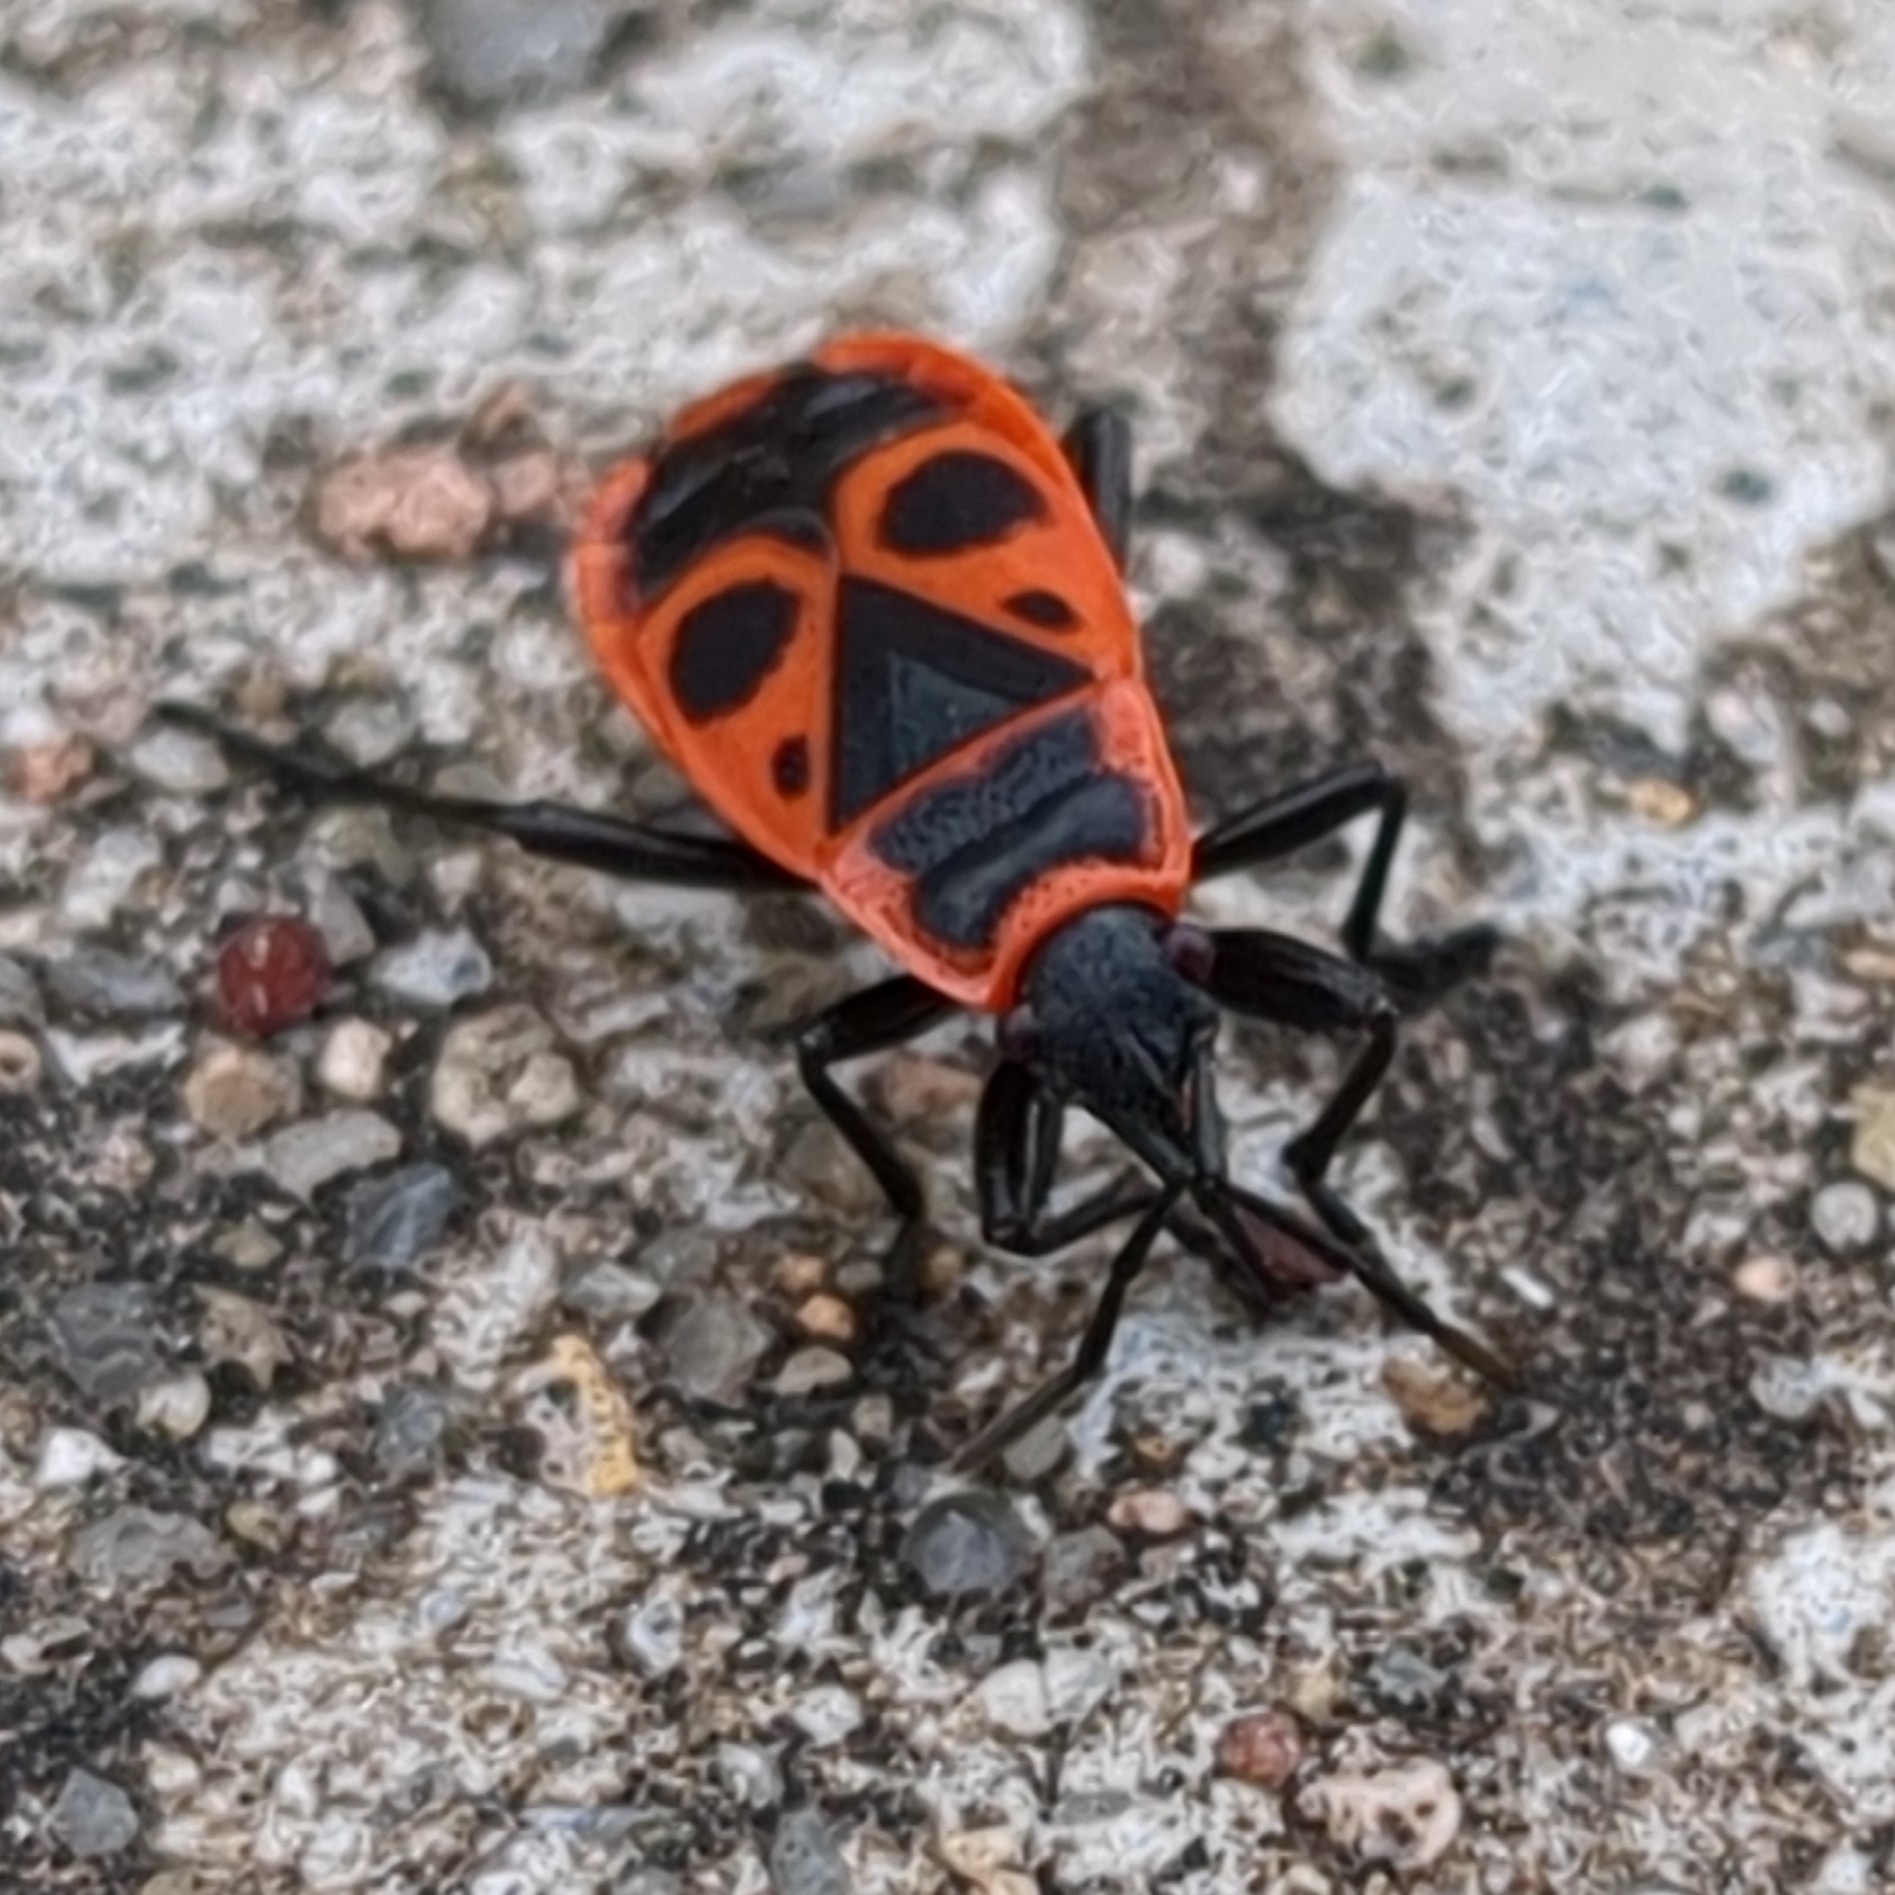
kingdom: Animalia
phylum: Arthropoda
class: Insecta
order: Hemiptera
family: Pyrrhocoridae
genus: Pyrrhocoris
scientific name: Pyrrhocoris apterus
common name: Firebug
